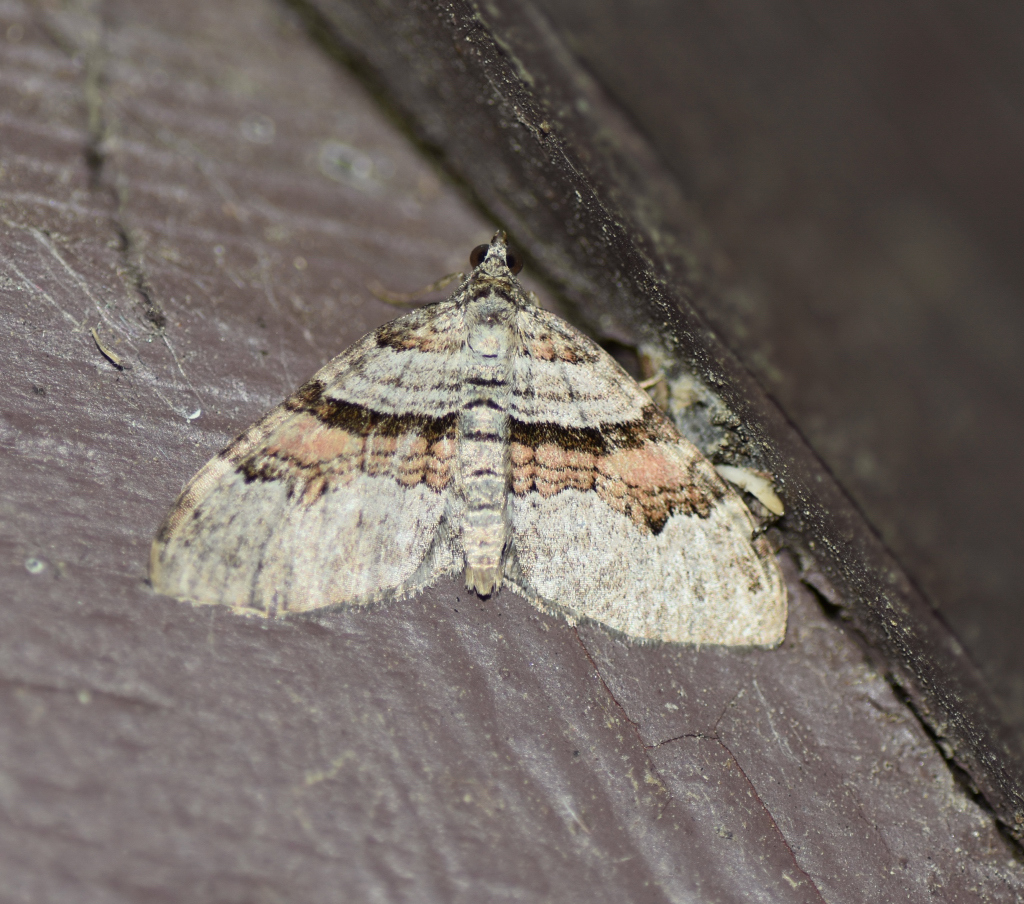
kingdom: Animalia
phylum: Arthropoda
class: Insecta
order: Lepidoptera
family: Geometridae
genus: Xanthorhoe
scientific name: Xanthorhoe labradorensis
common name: Labrador carpet
